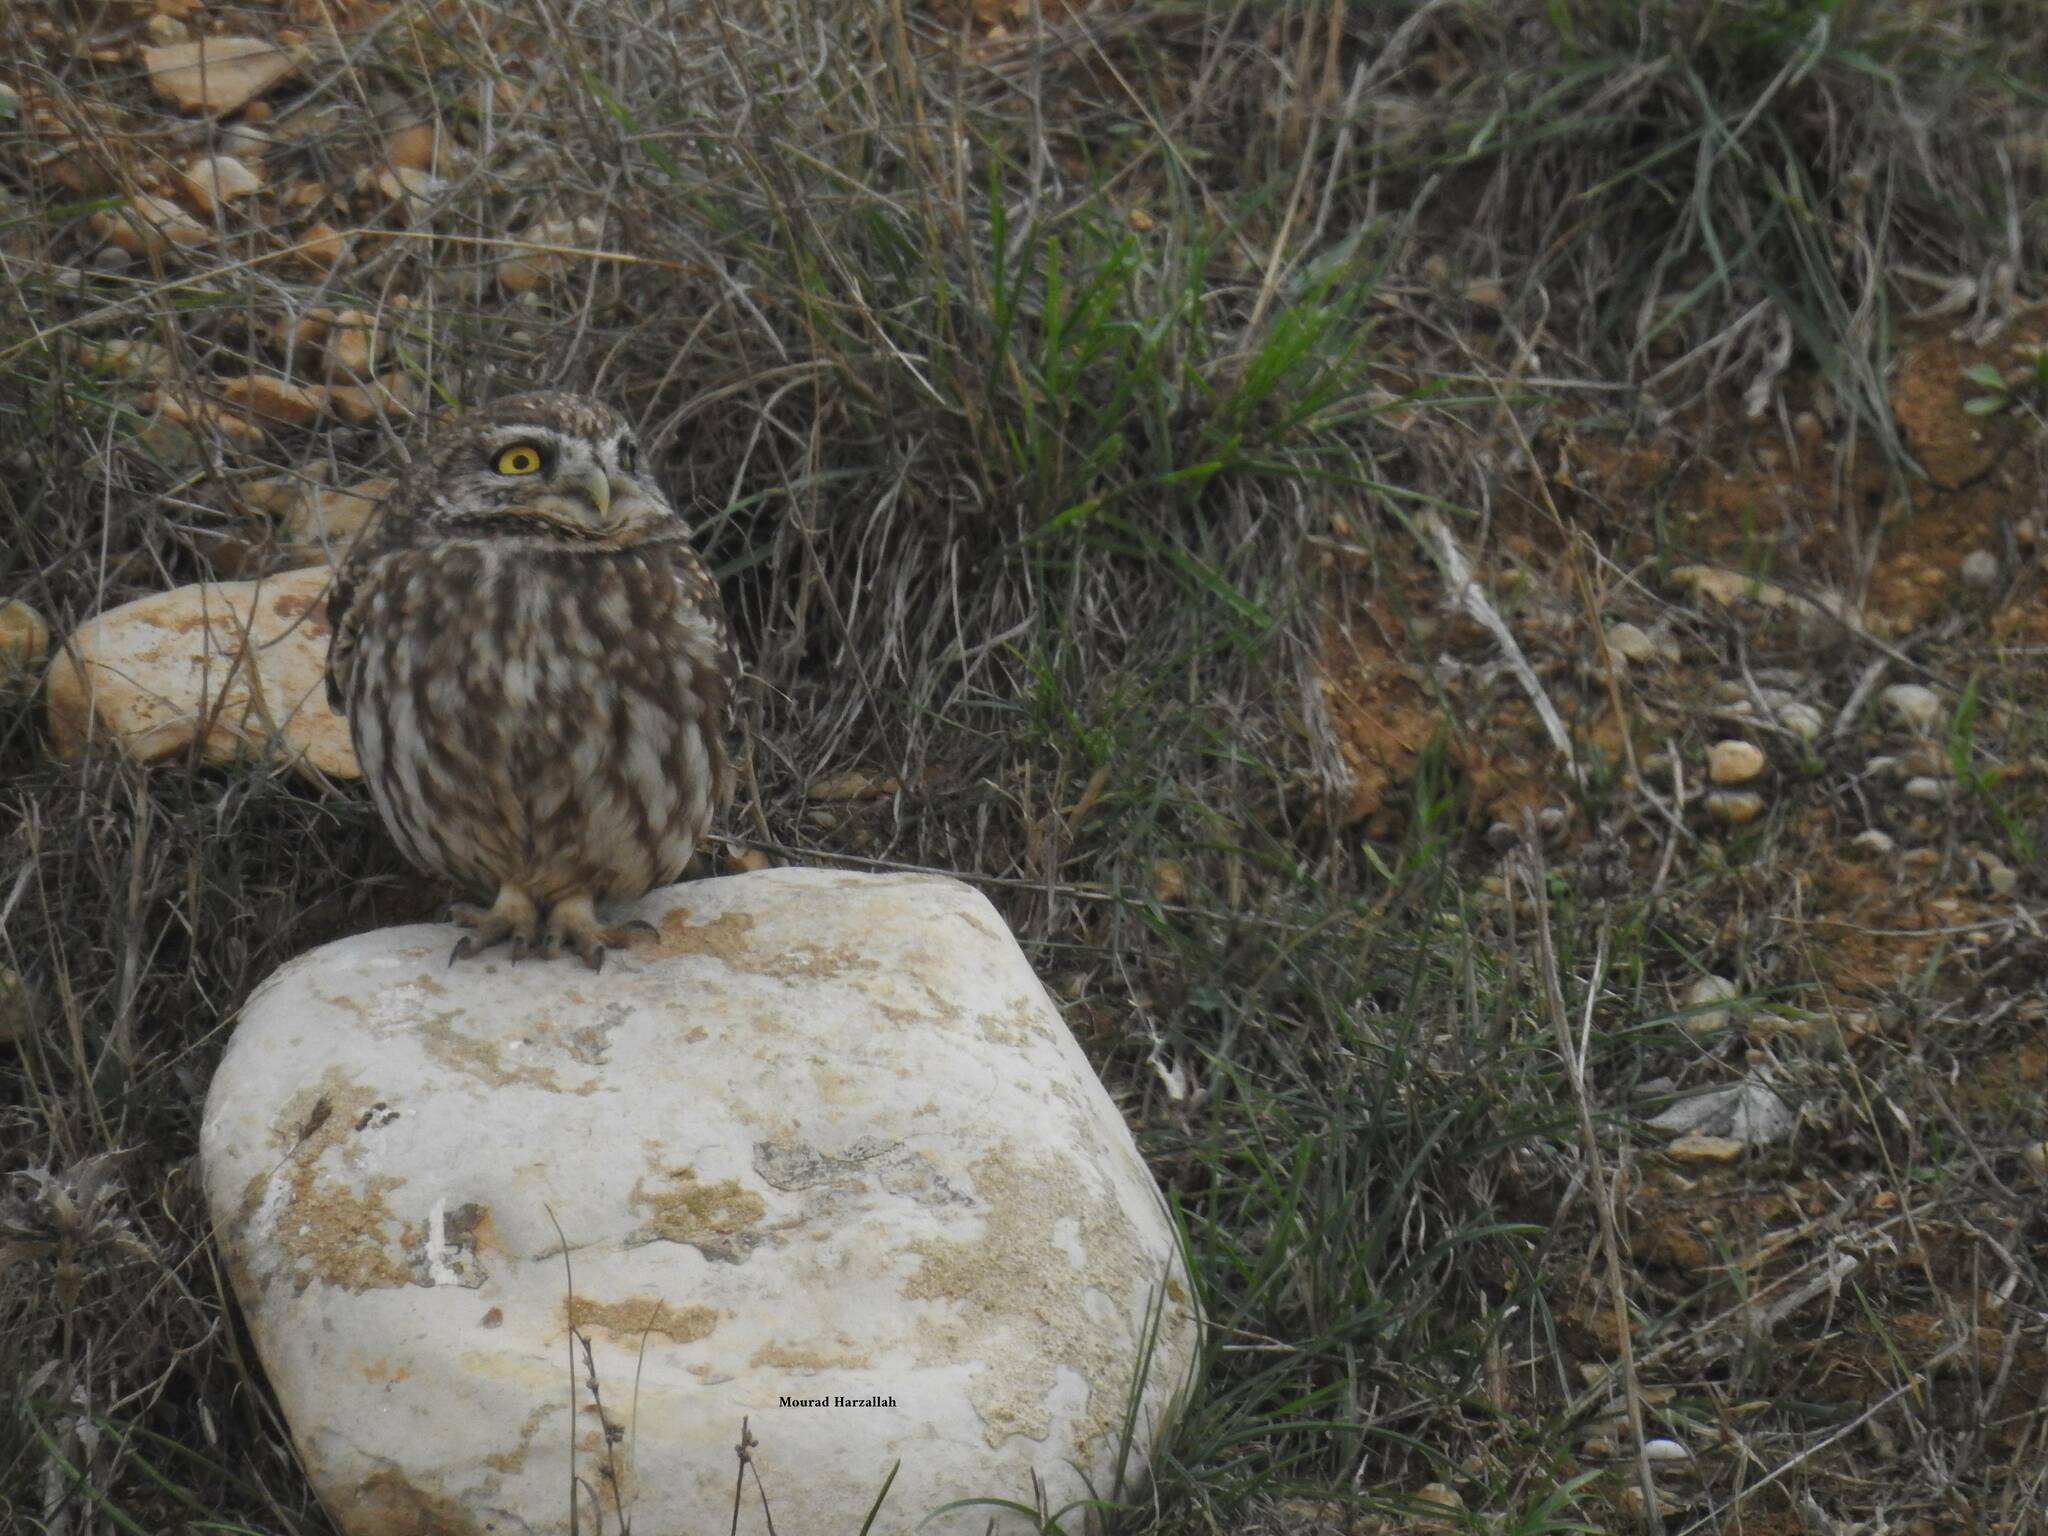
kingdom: Animalia
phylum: Chordata
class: Aves
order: Strigiformes
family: Strigidae
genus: Athene
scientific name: Athene noctua
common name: Little owl
